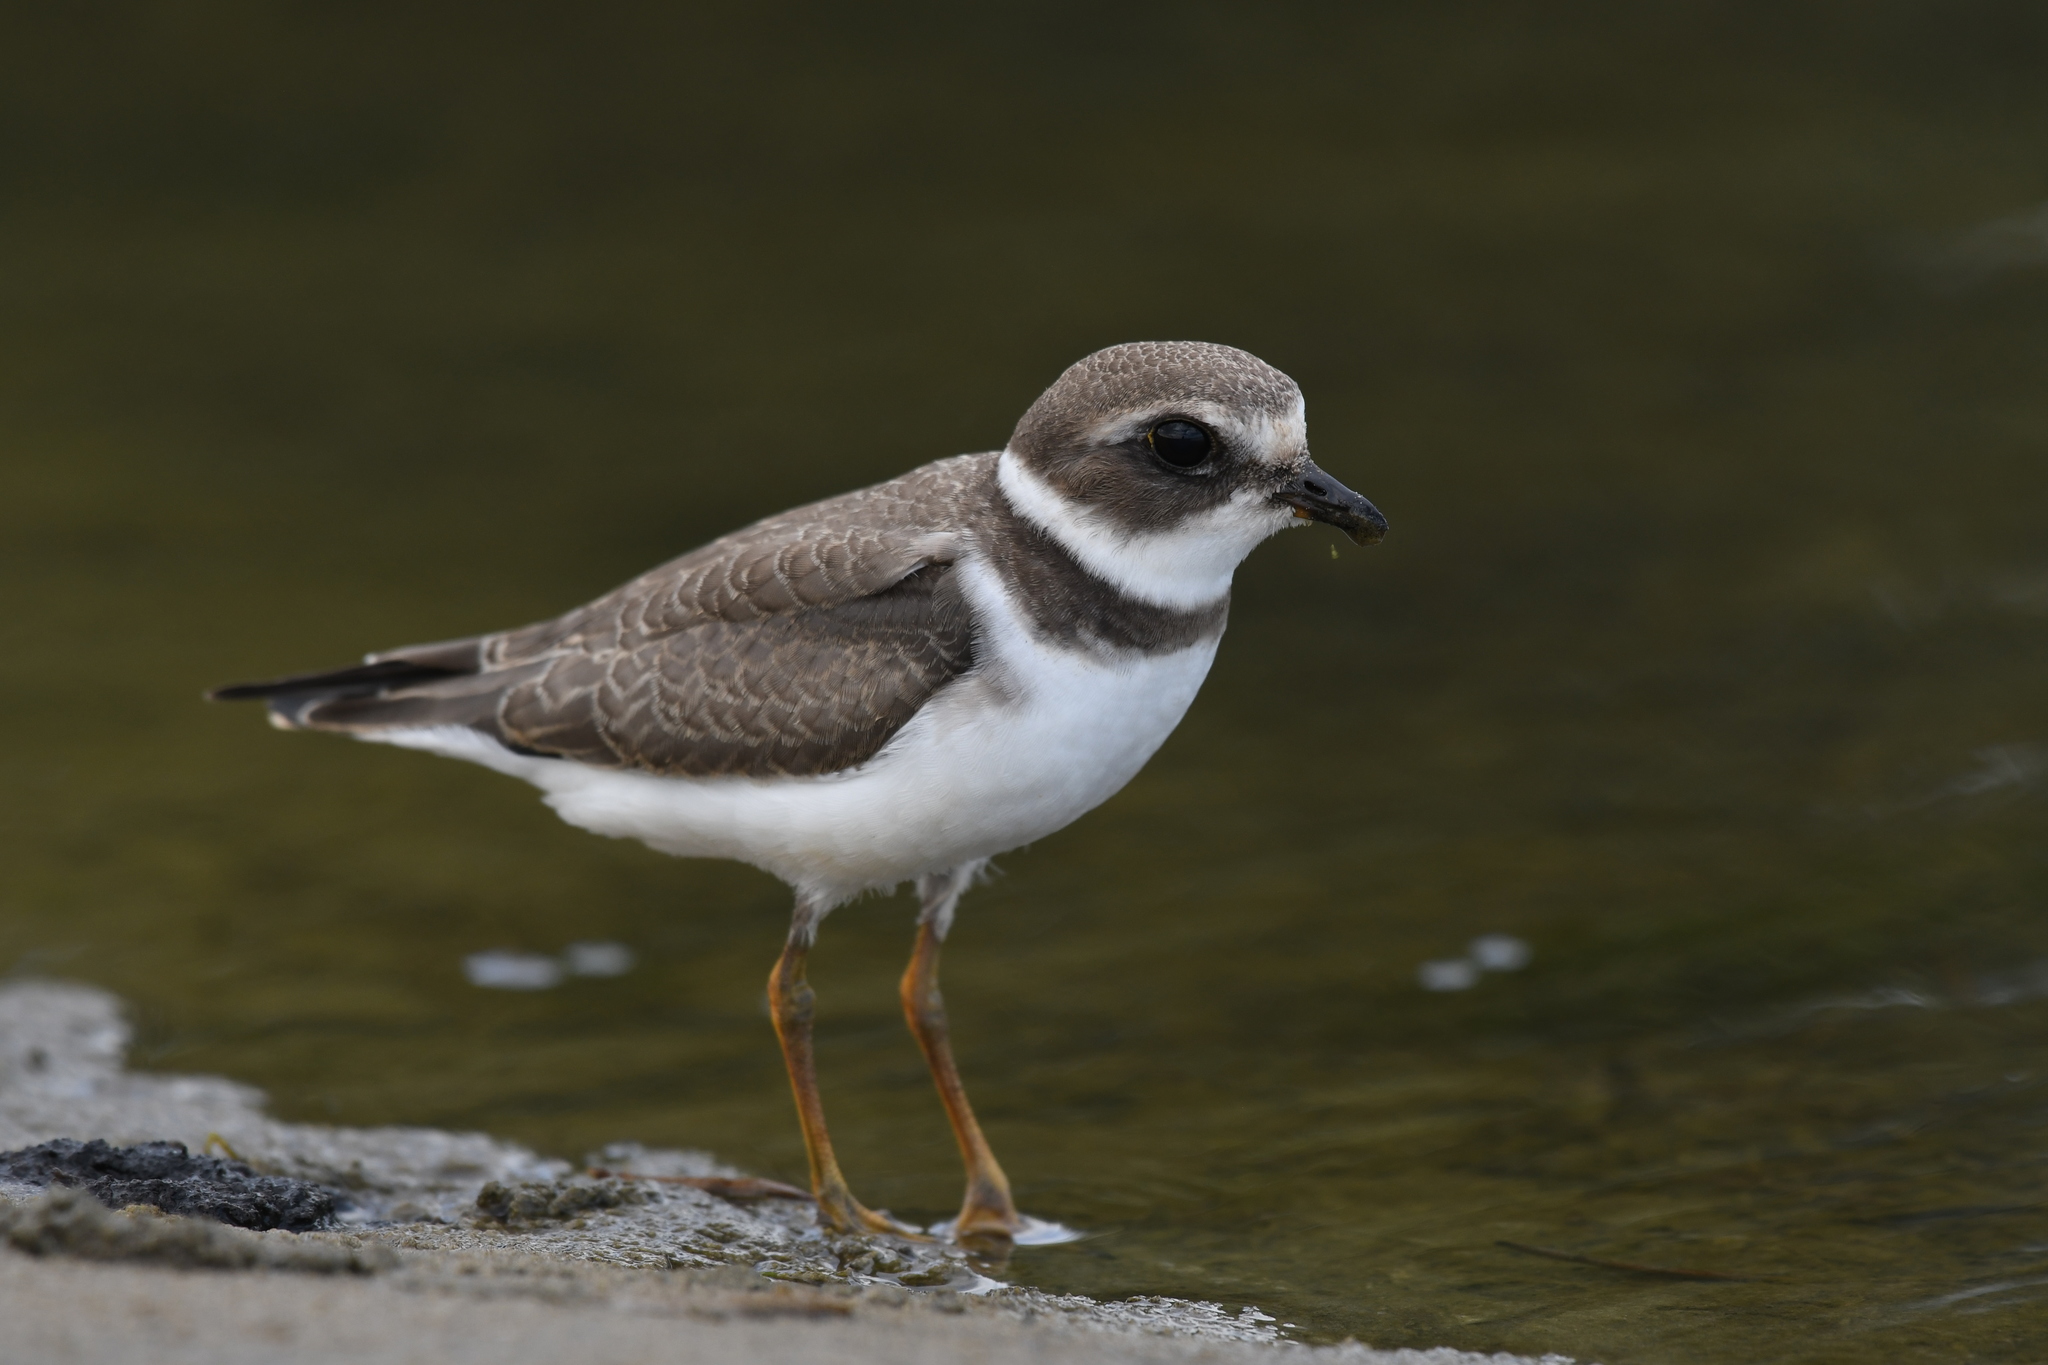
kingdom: Animalia
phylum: Chordata
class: Aves
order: Charadriiformes
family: Charadriidae
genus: Charadrius
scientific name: Charadrius semipalmatus
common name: Semipalmated plover
